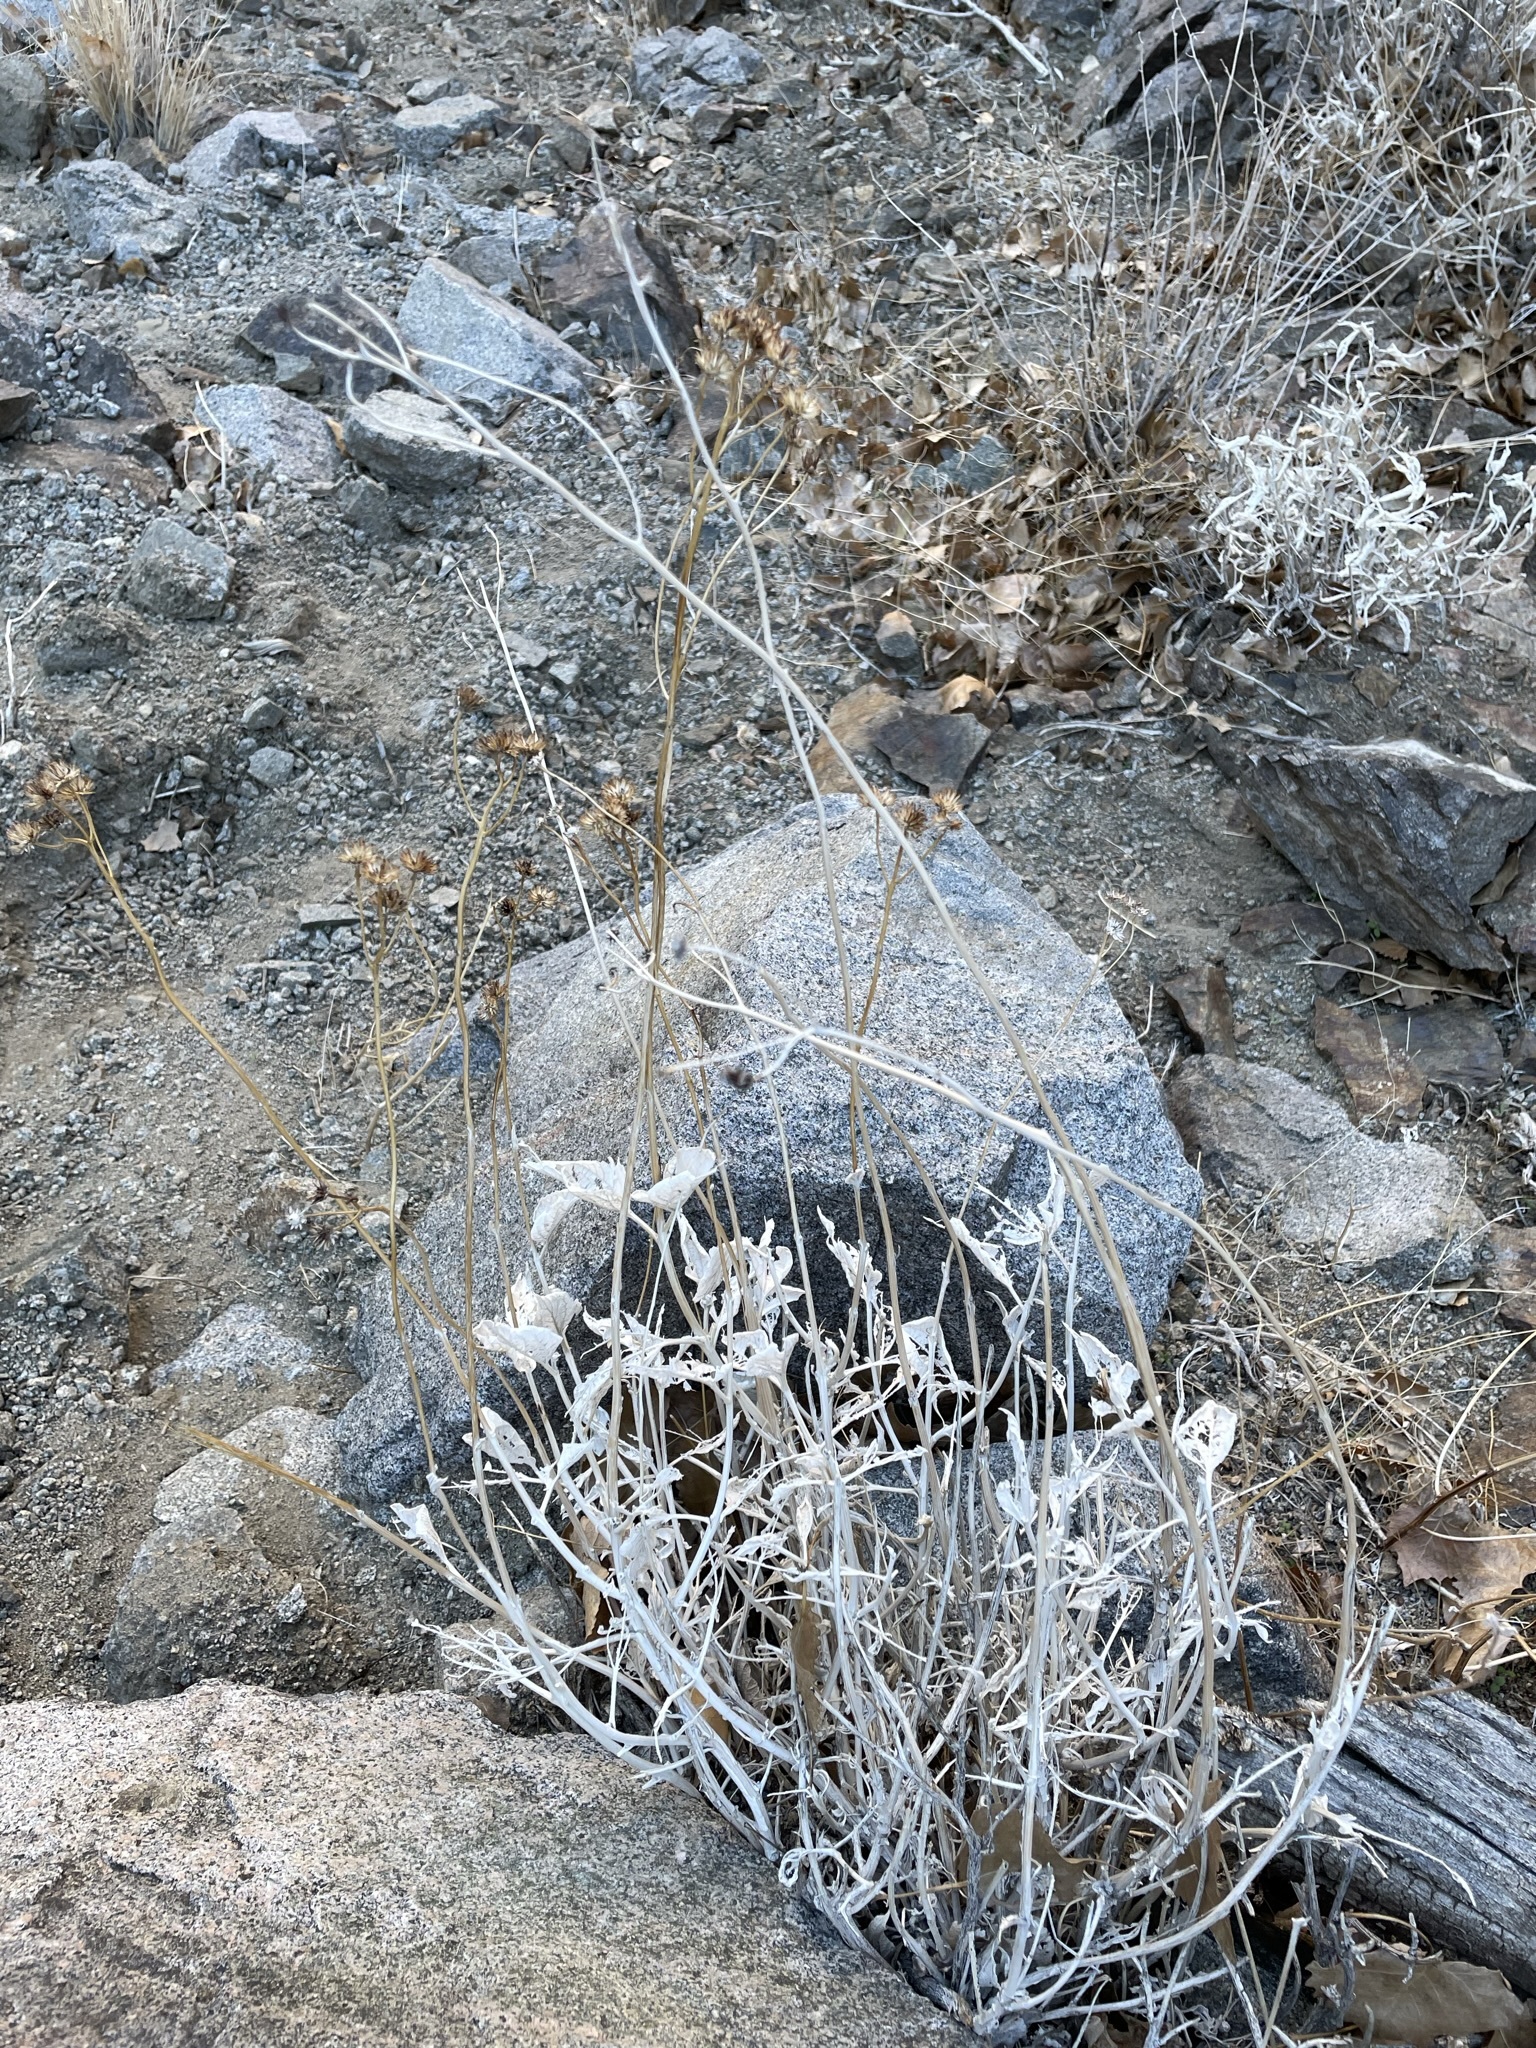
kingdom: Plantae
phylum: Tracheophyta
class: Magnoliopsida
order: Asterales
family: Asteraceae
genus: Bahiopsis
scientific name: Bahiopsis reticulata
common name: Death valley goldeneye
